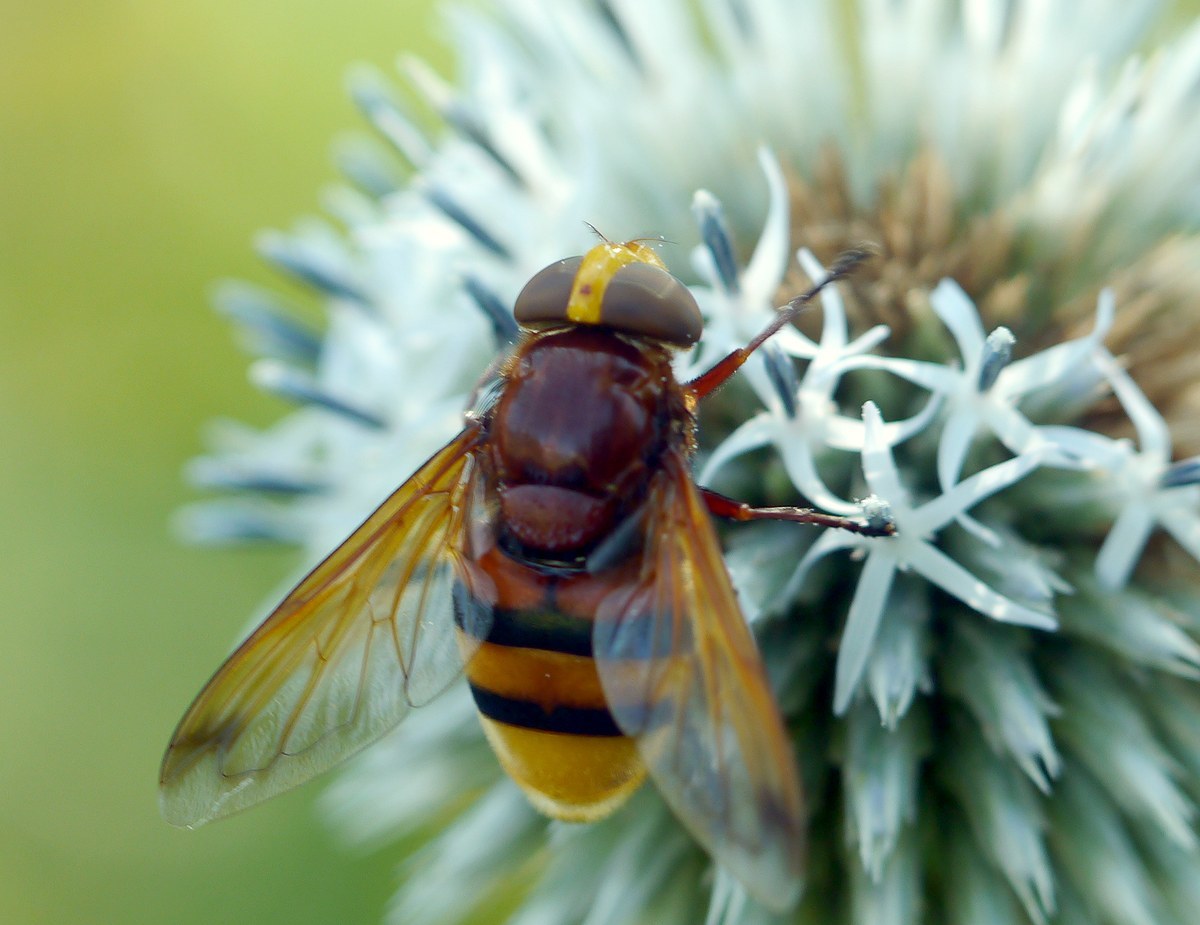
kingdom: Animalia
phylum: Arthropoda
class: Insecta
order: Diptera
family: Syrphidae
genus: Volucella
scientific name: Volucella zonaria
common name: Hornet hoverfly
